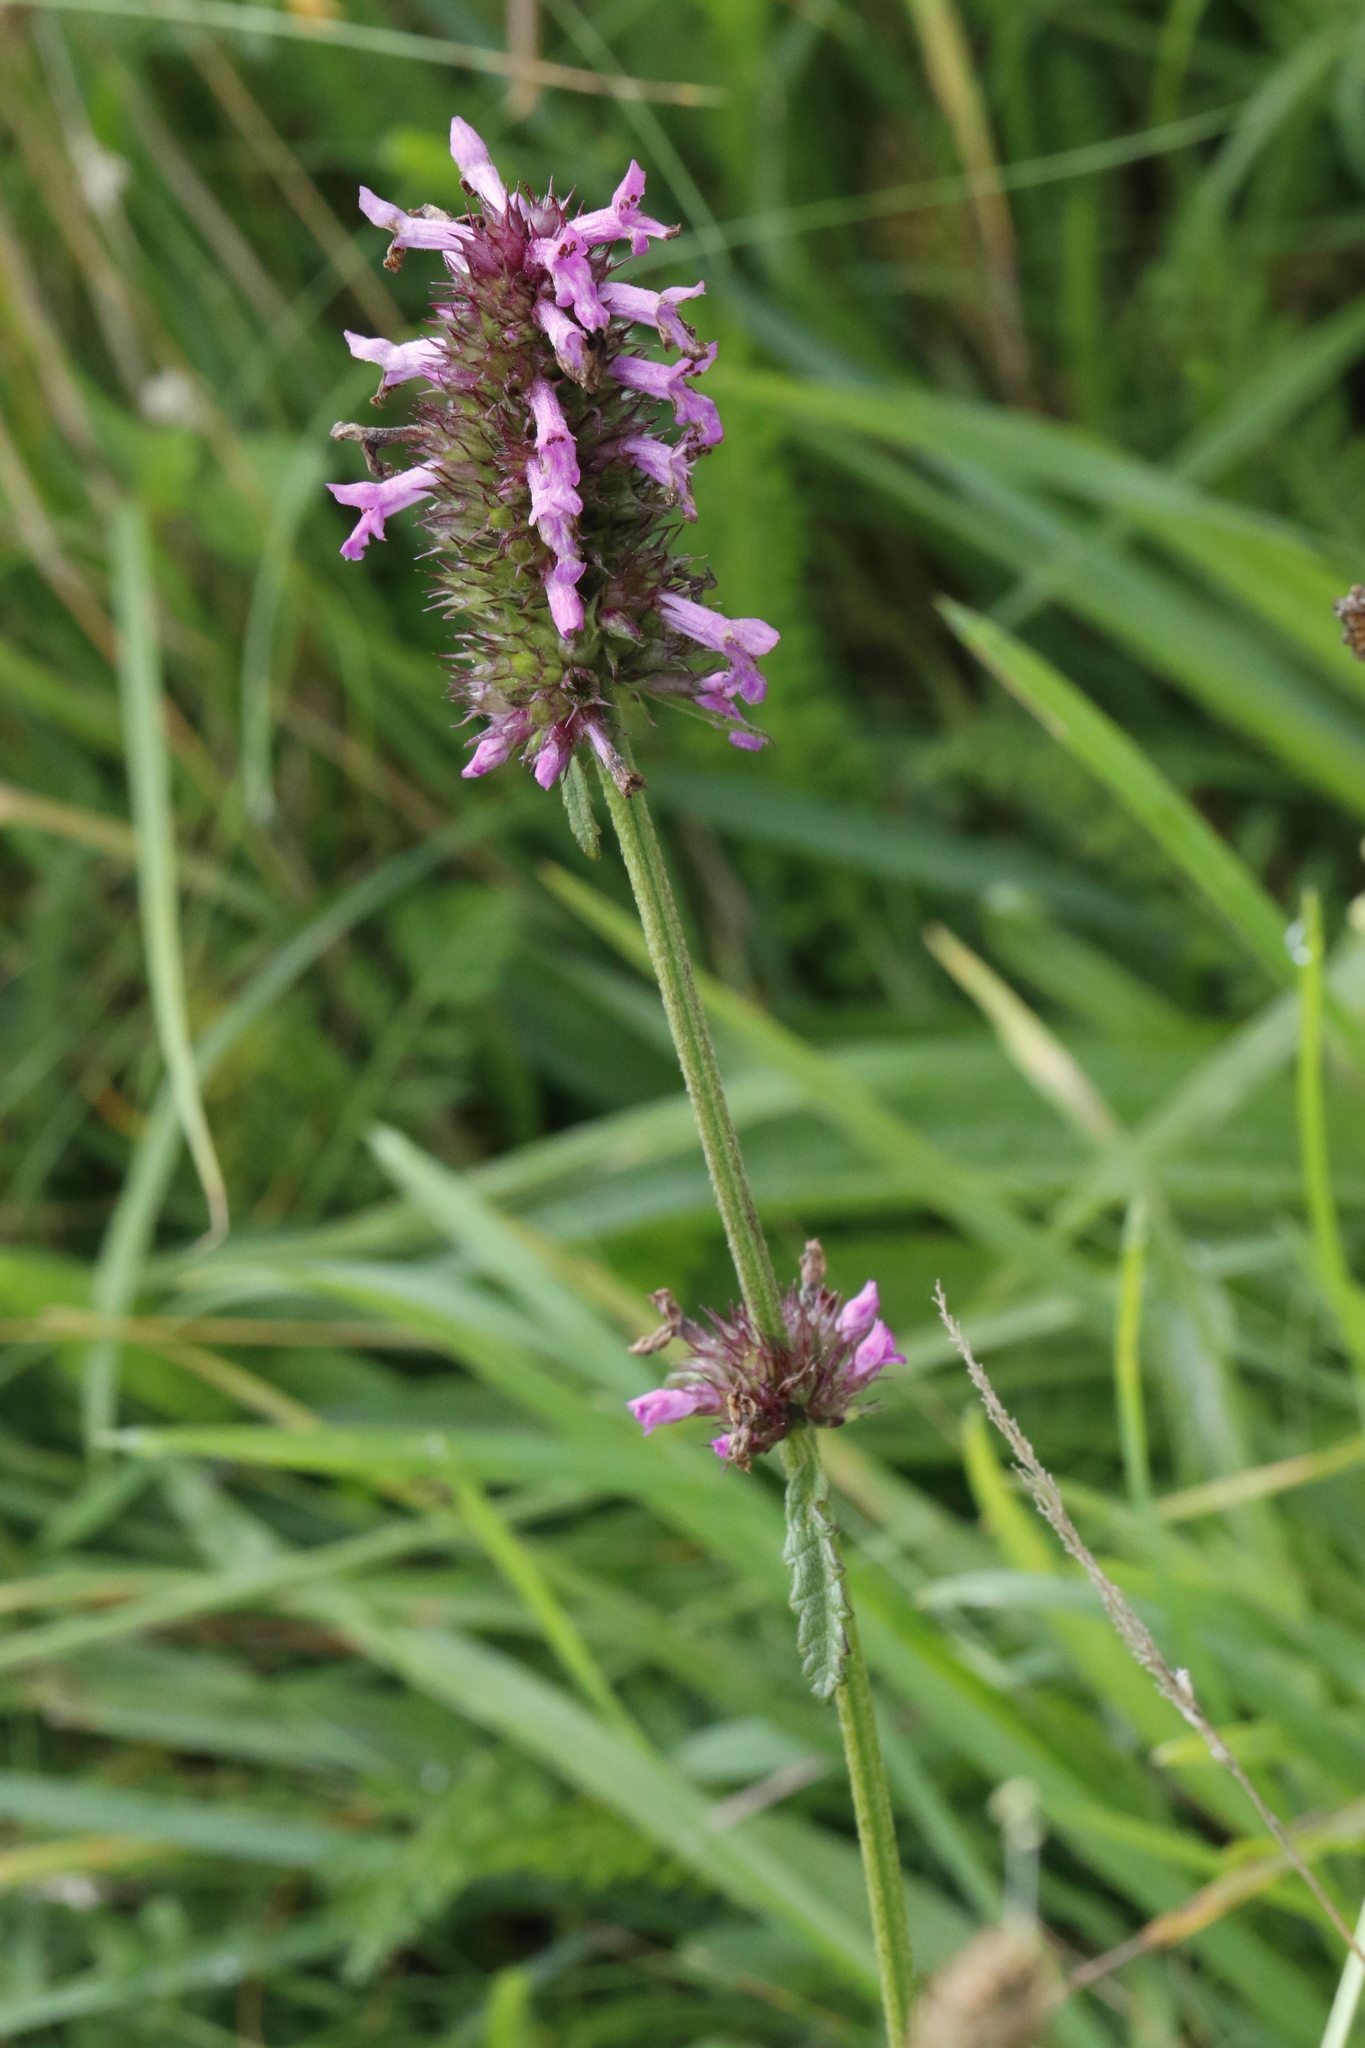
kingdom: Plantae
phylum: Tracheophyta
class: Magnoliopsida
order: Lamiales
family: Lamiaceae
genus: Betonica
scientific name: Betonica officinalis
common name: Bishop's-wort
